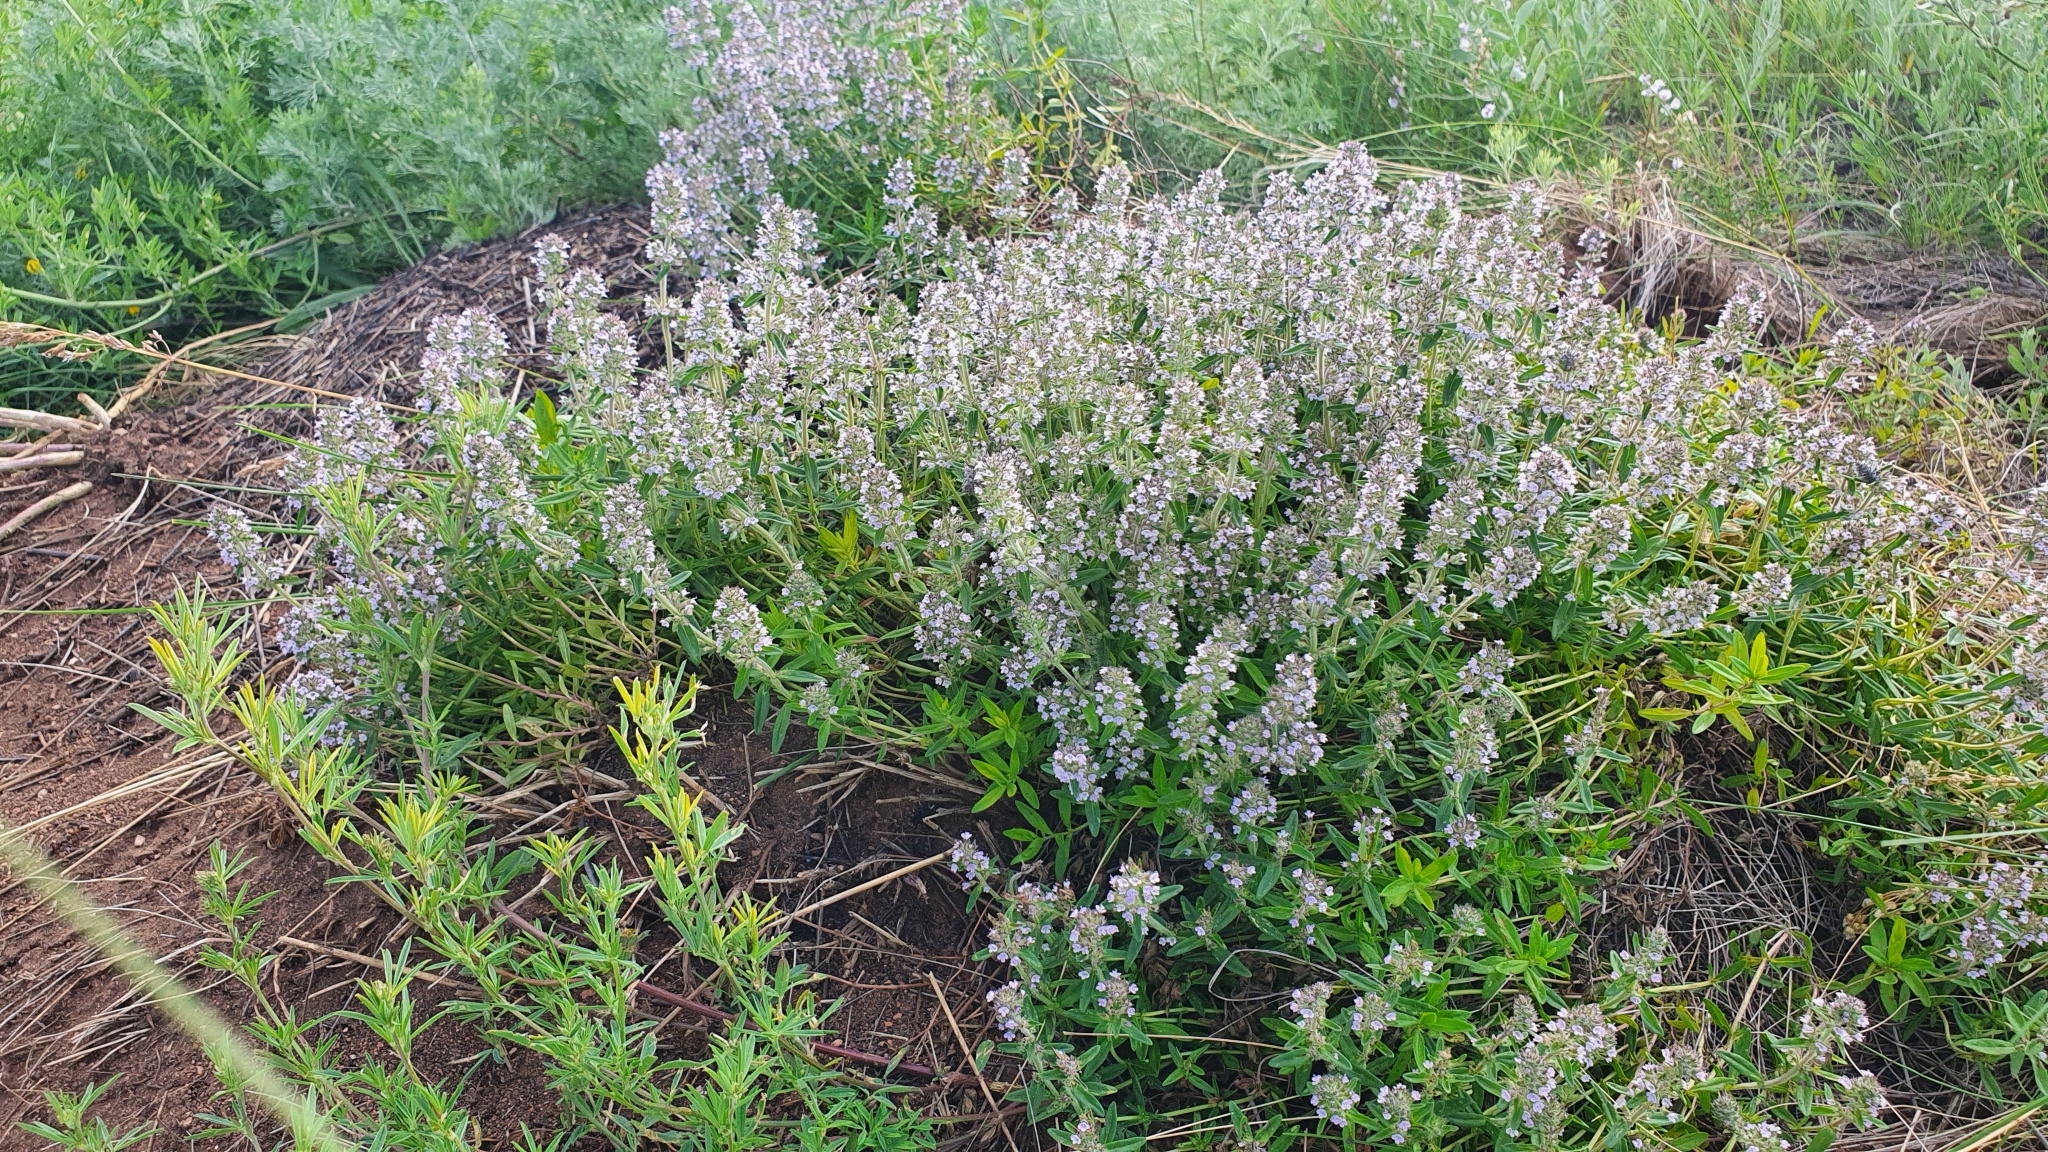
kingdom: Plantae
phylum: Tracheophyta
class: Magnoliopsida
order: Lamiales
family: Lamiaceae
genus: Thymus
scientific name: Thymus pannonicus
